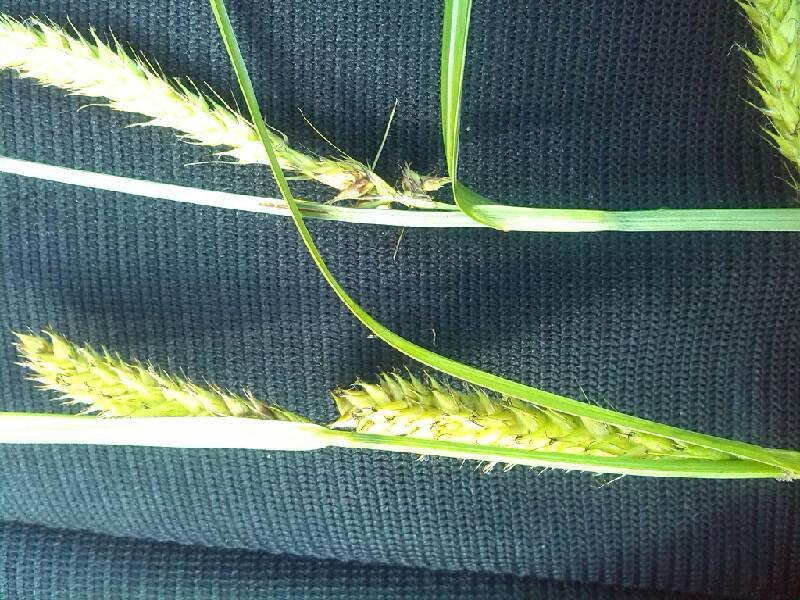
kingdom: Plantae
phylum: Tracheophyta
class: Liliopsida
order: Poales
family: Cyperaceae
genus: Carex
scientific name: Carex walasii
